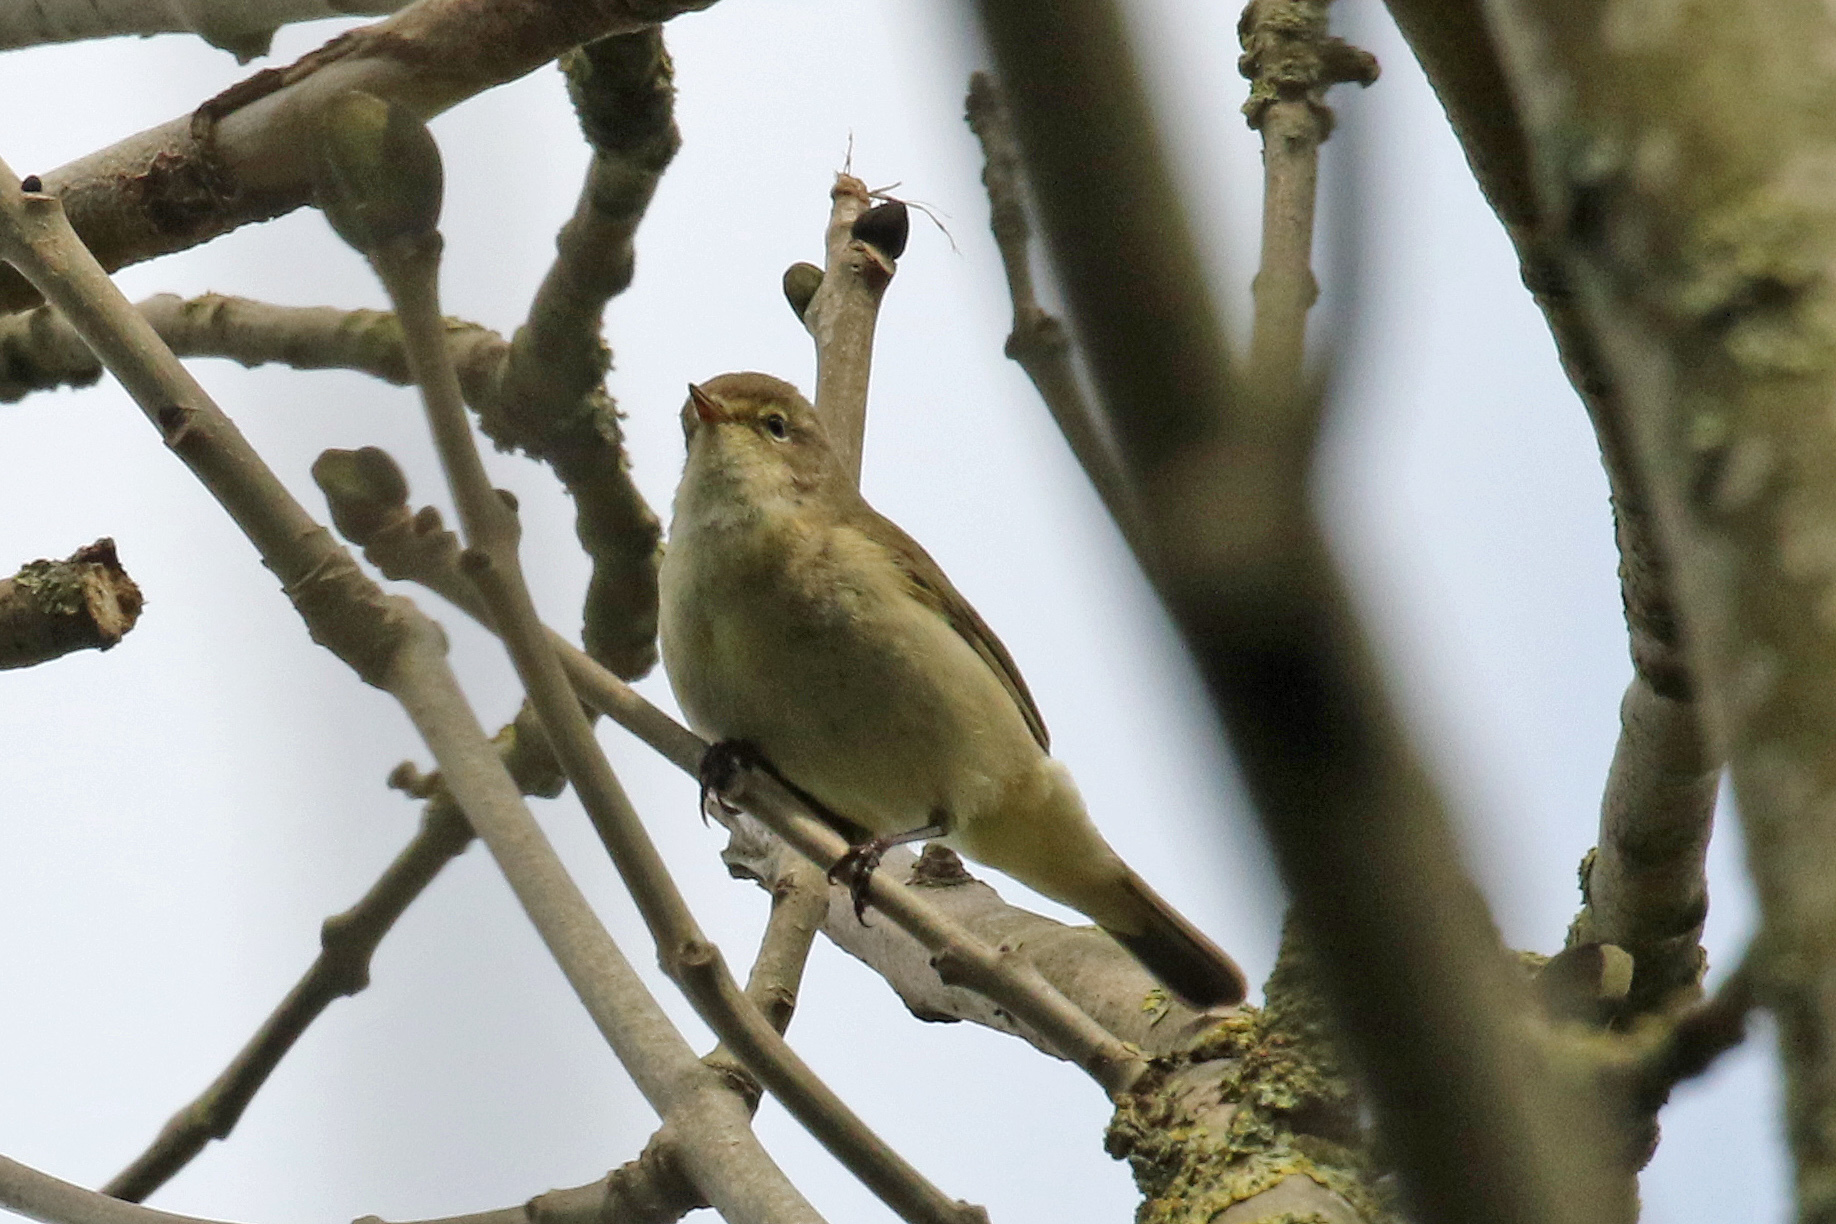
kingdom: Animalia
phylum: Chordata
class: Aves
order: Passeriformes
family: Phylloscopidae
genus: Phylloscopus
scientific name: Phylloscopus collybita
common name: Common chiffchaff
